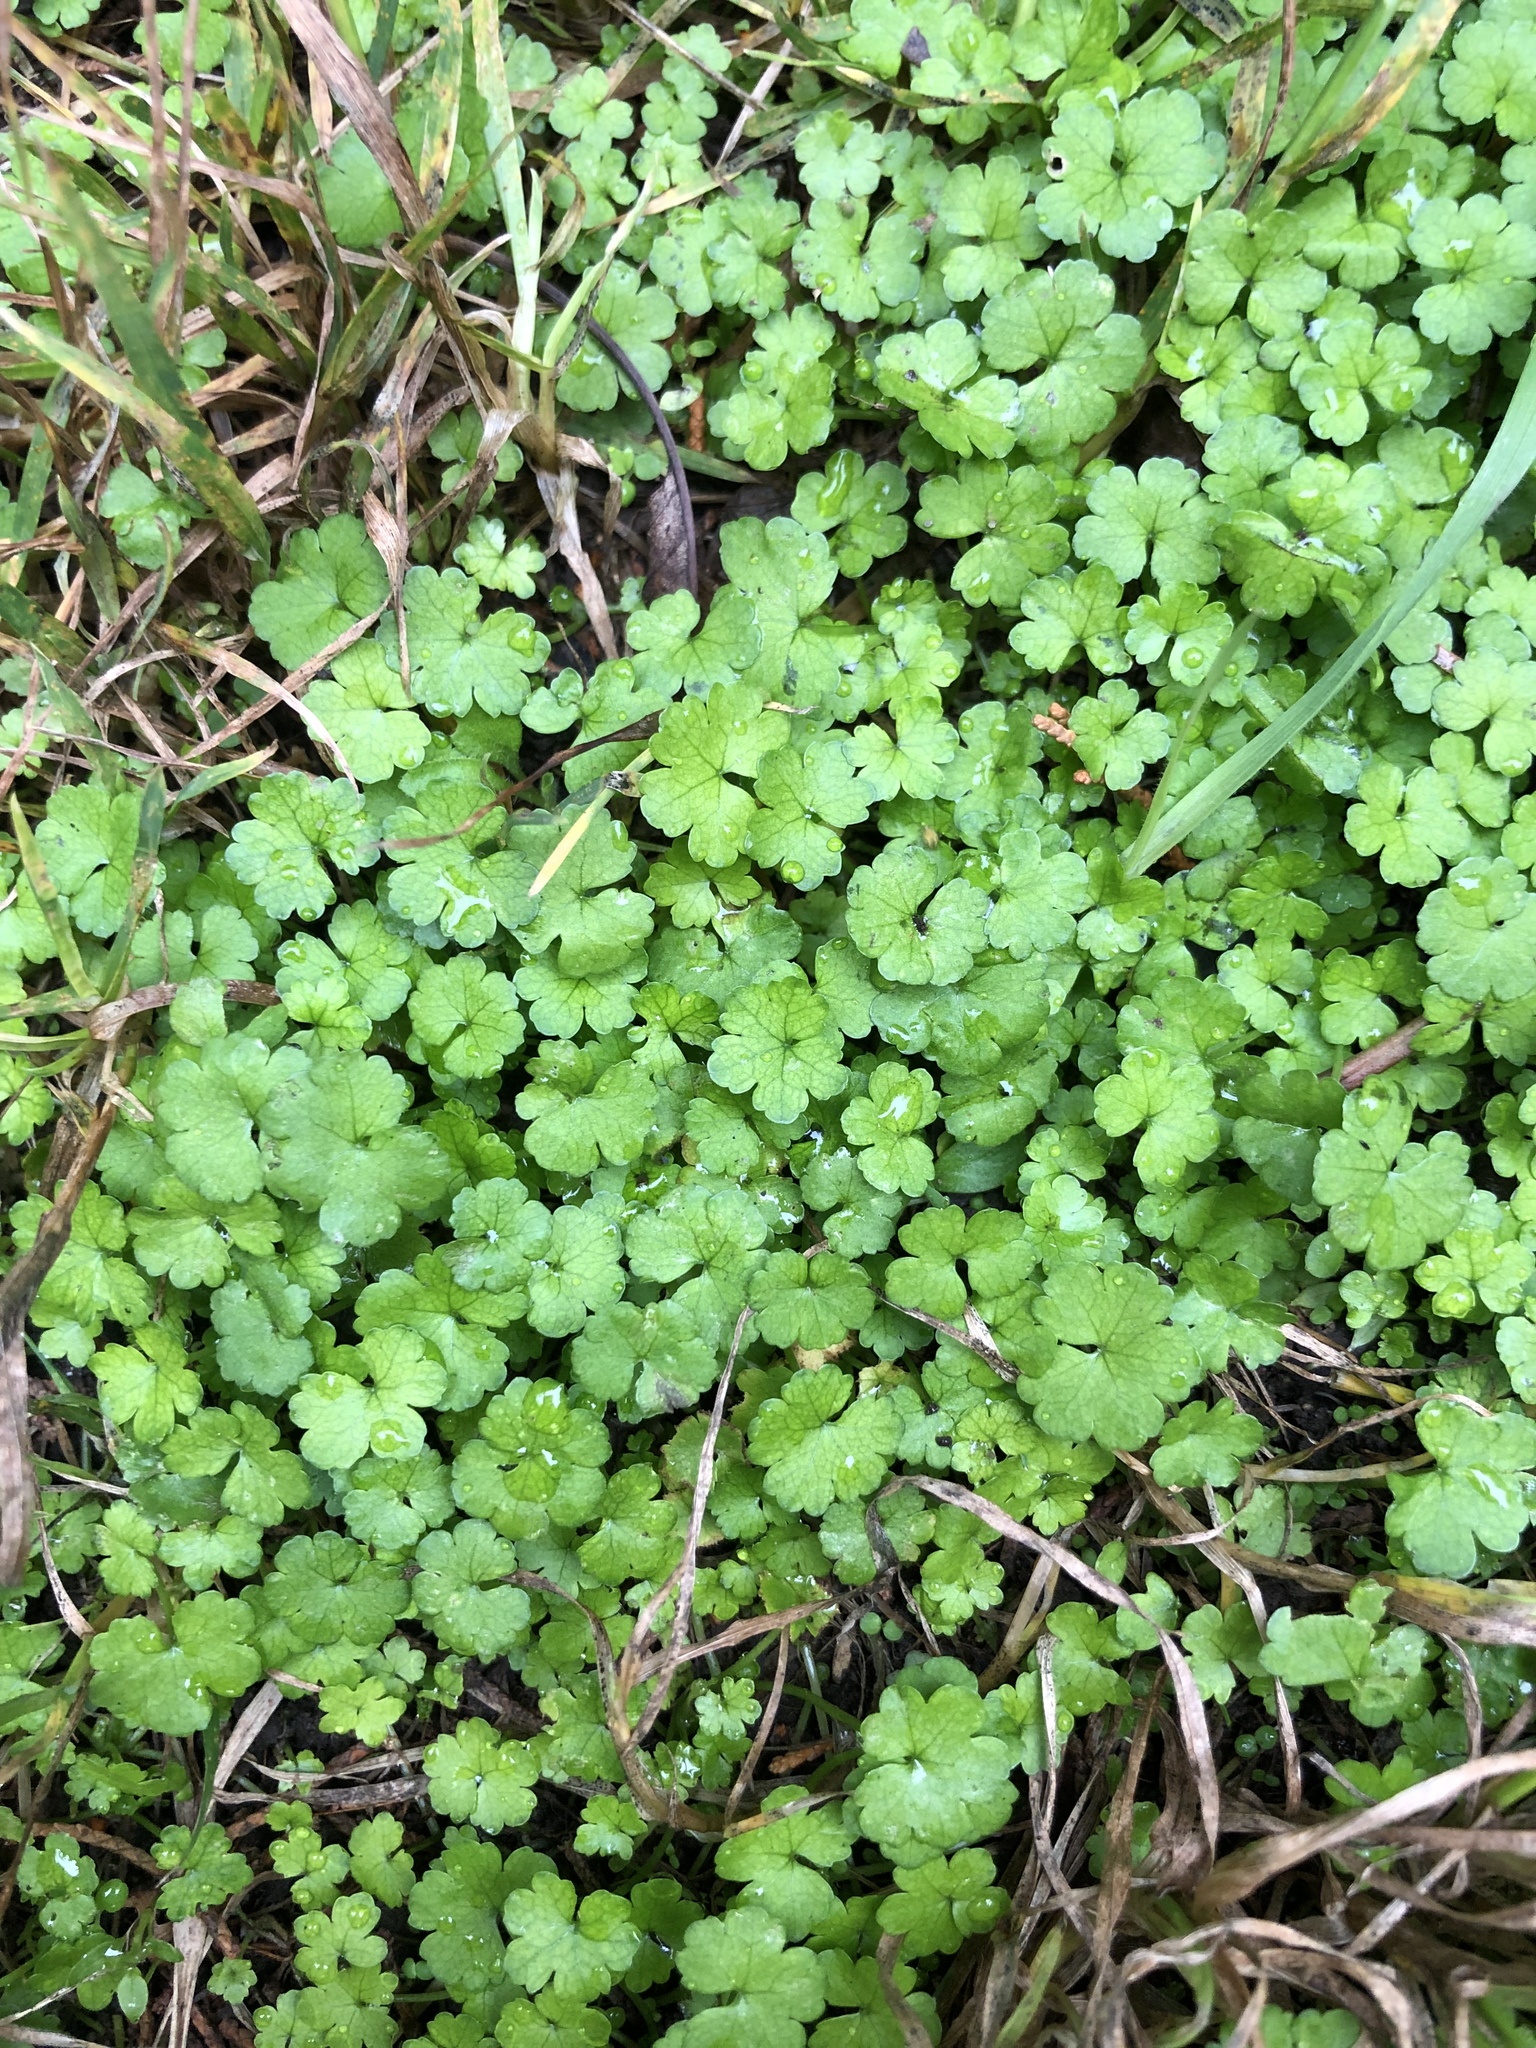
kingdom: Plantae
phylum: Tracheophyta
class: Magnoliopsida
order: Apiales
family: Araliaceae
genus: Hydrocotyle
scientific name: Hydrocotyle heteromeria
